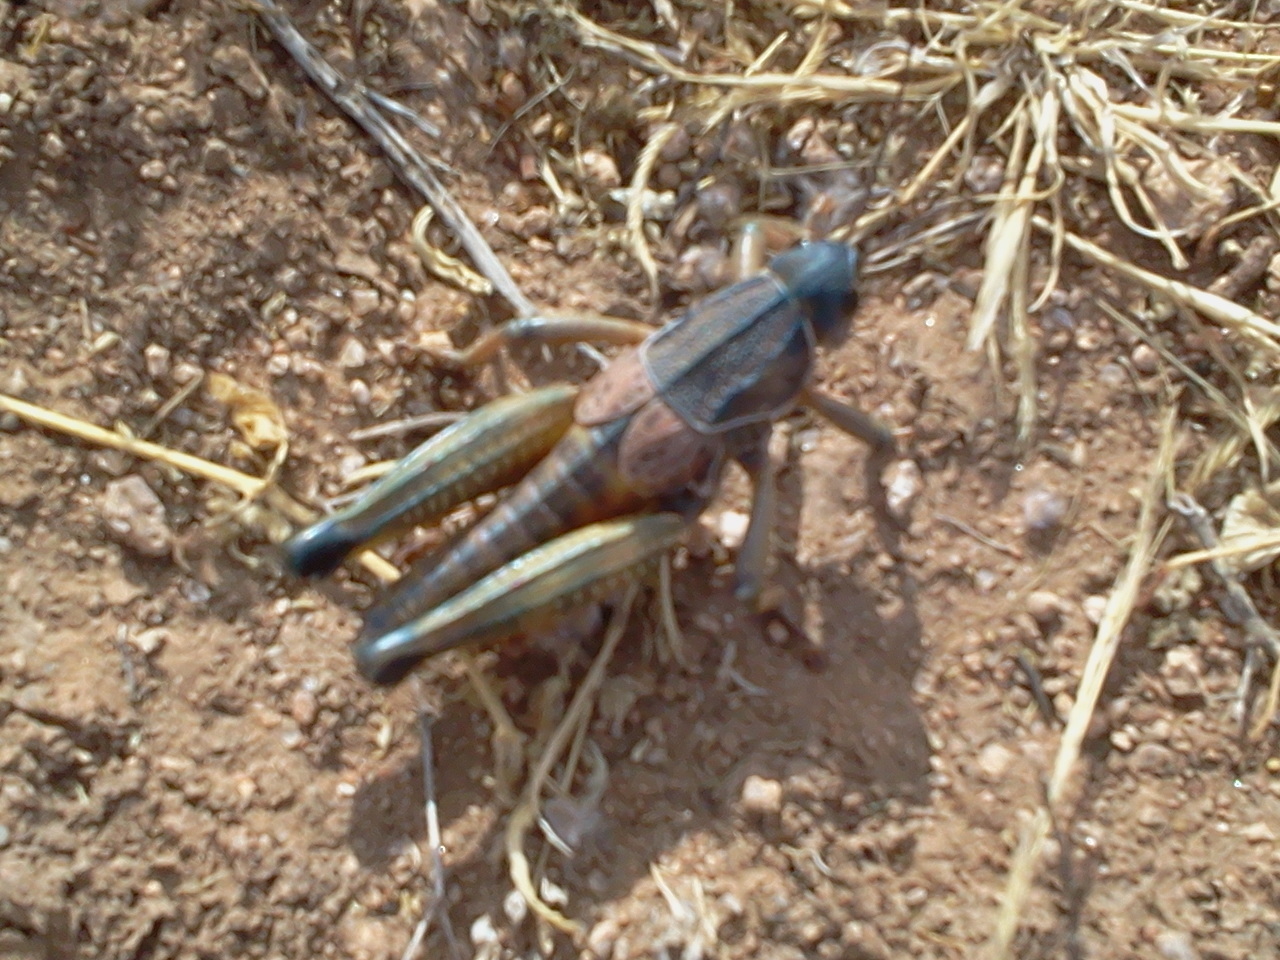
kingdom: Animalia
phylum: Arthropoda
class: Insecta
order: Orthoptera
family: Romaleidae
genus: Brachystola
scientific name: Brachystola magna
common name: Plains lubber grasshopper
